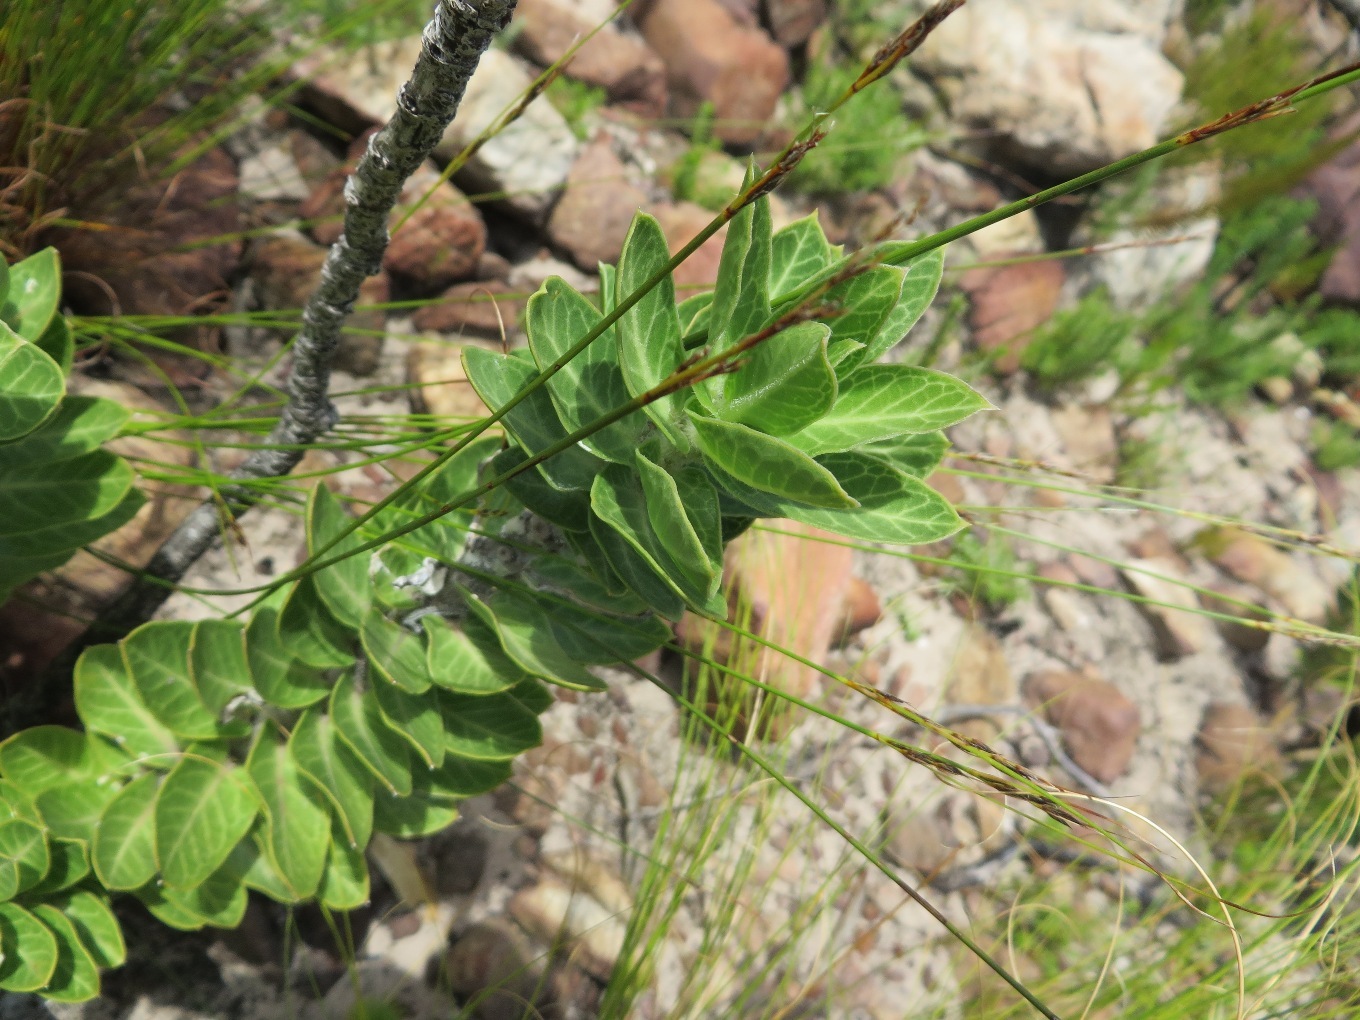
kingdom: Plantae
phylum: Tracheophyta
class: Magnoliopsida
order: Gentianales
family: Apocynaceae
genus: Gomphocarpus
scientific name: Gomphocarpus cancellatus
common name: Wild cotton
